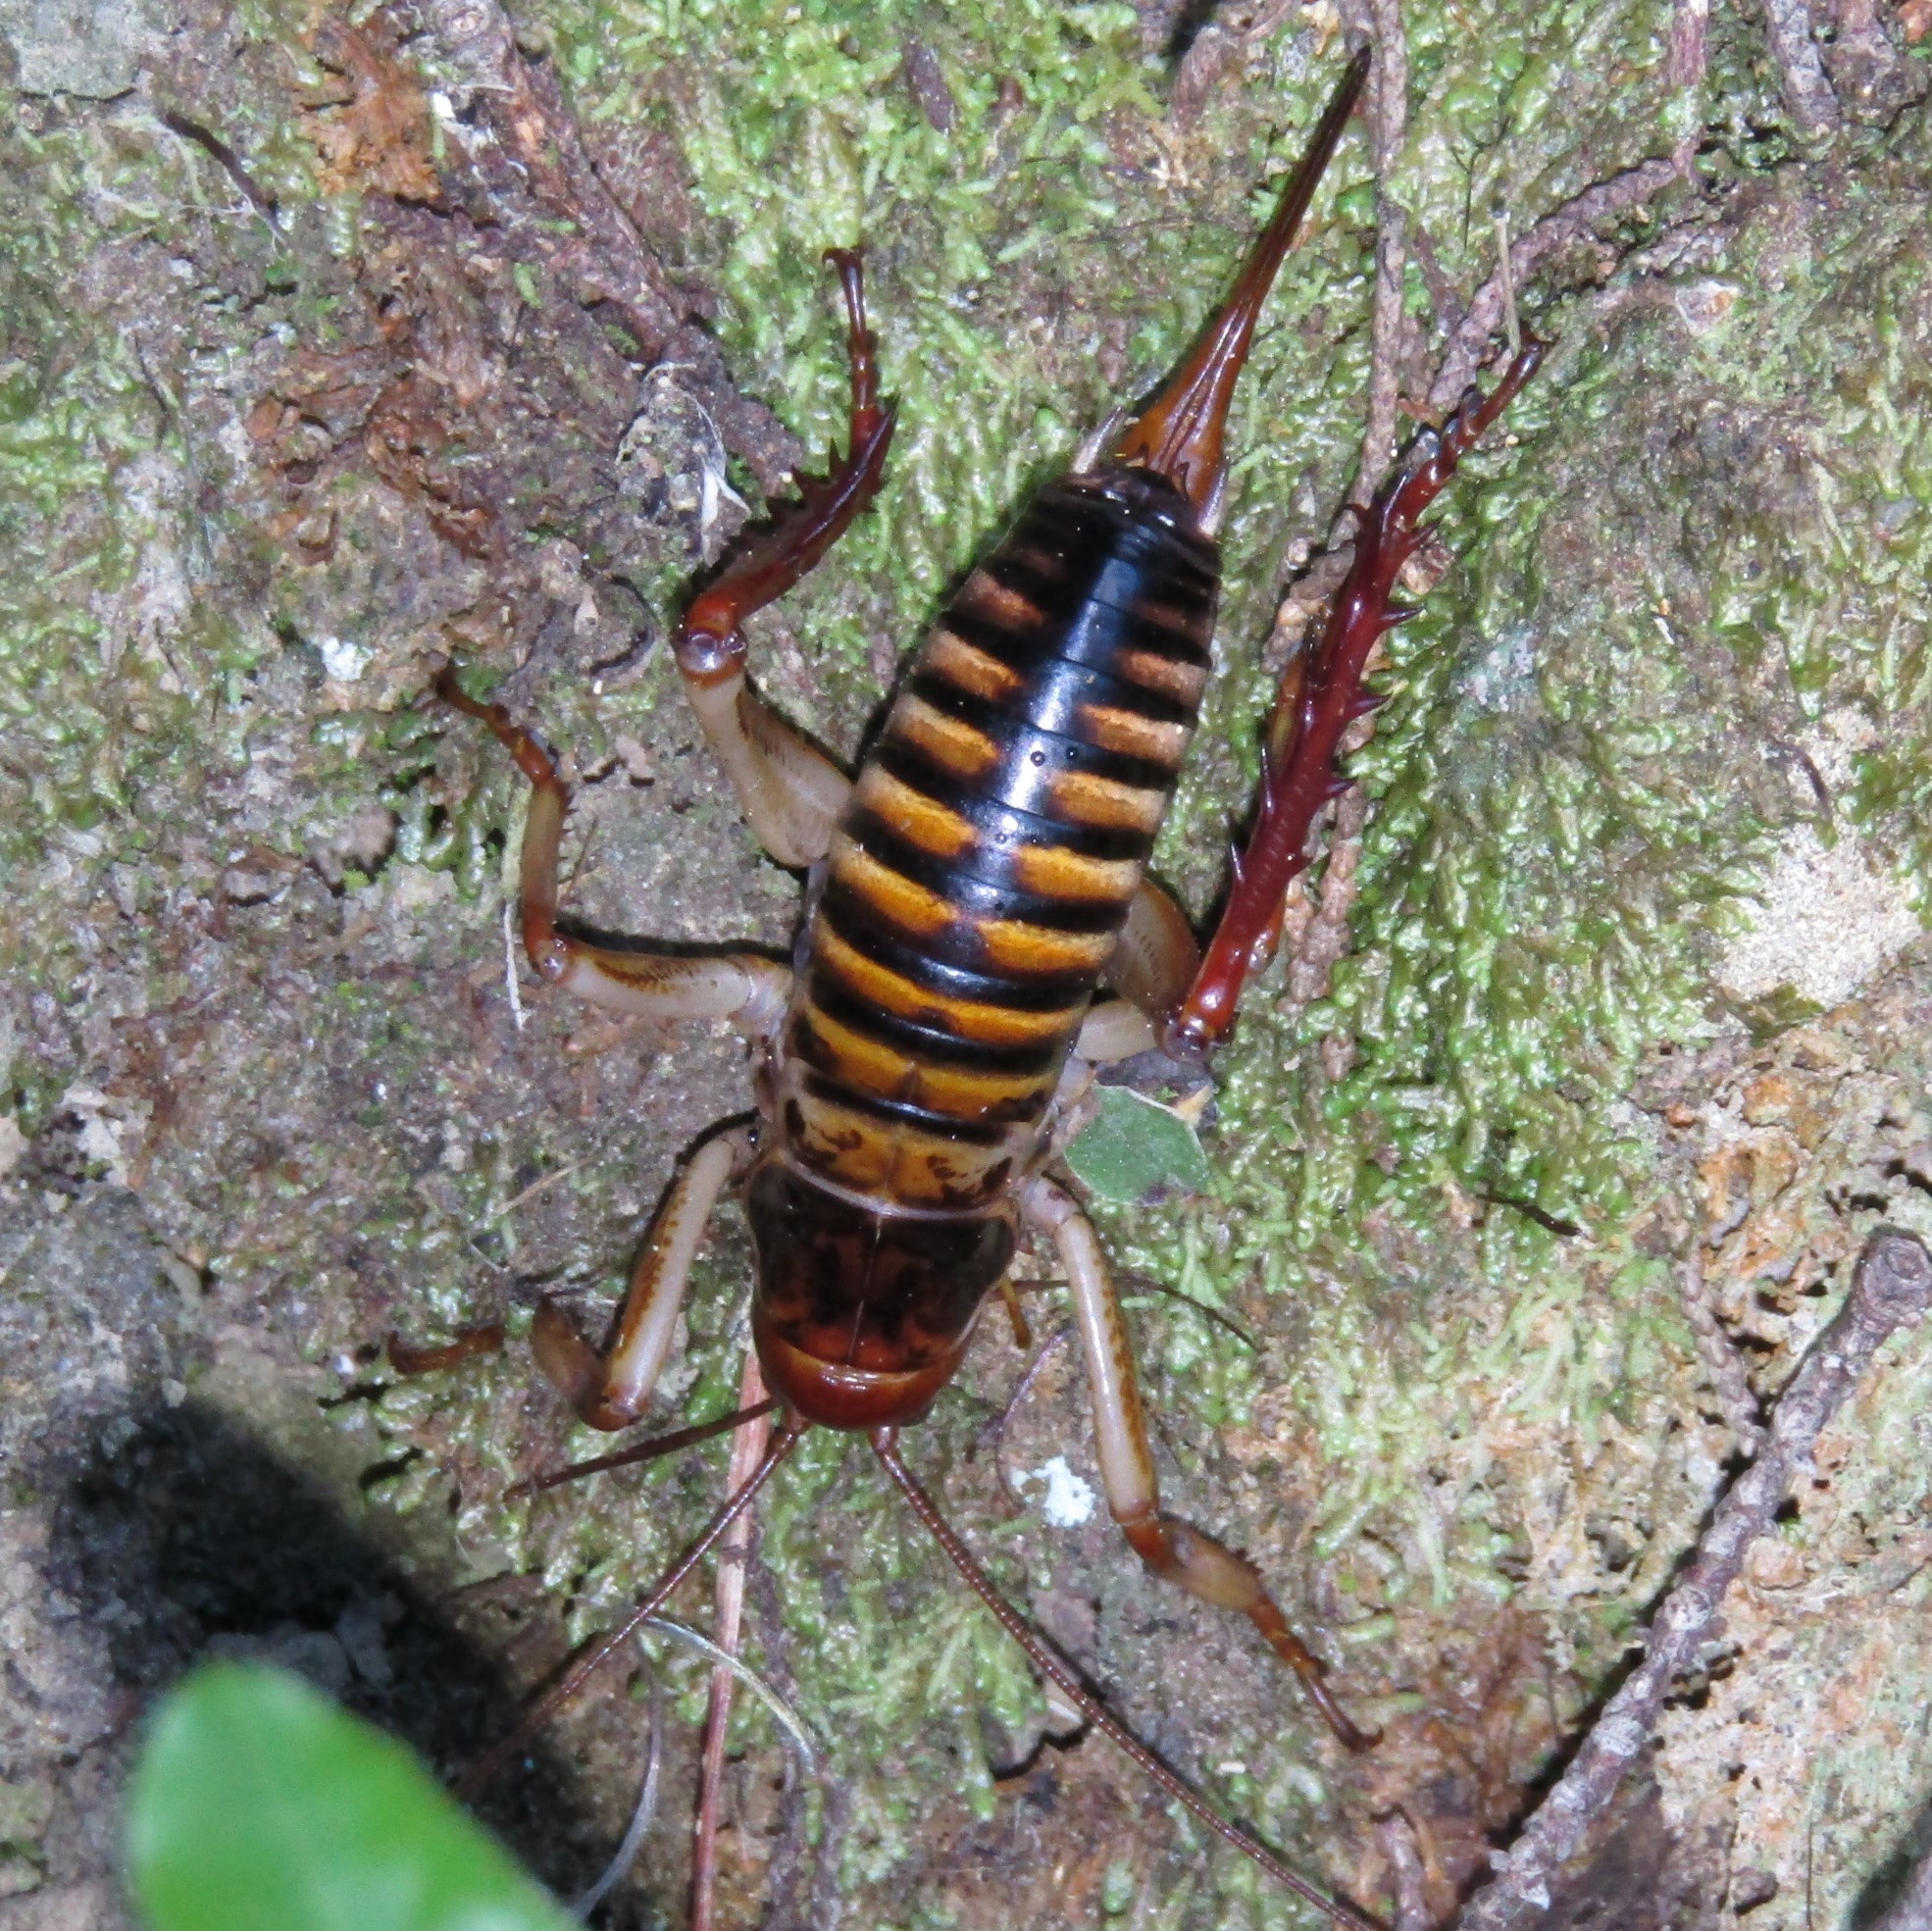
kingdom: Animalia
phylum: Arthropoda
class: Insecta
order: Orthoptera
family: Anostostomatidae
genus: Hemideina
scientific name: Hemideina crassidens
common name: Wellington tree weta
